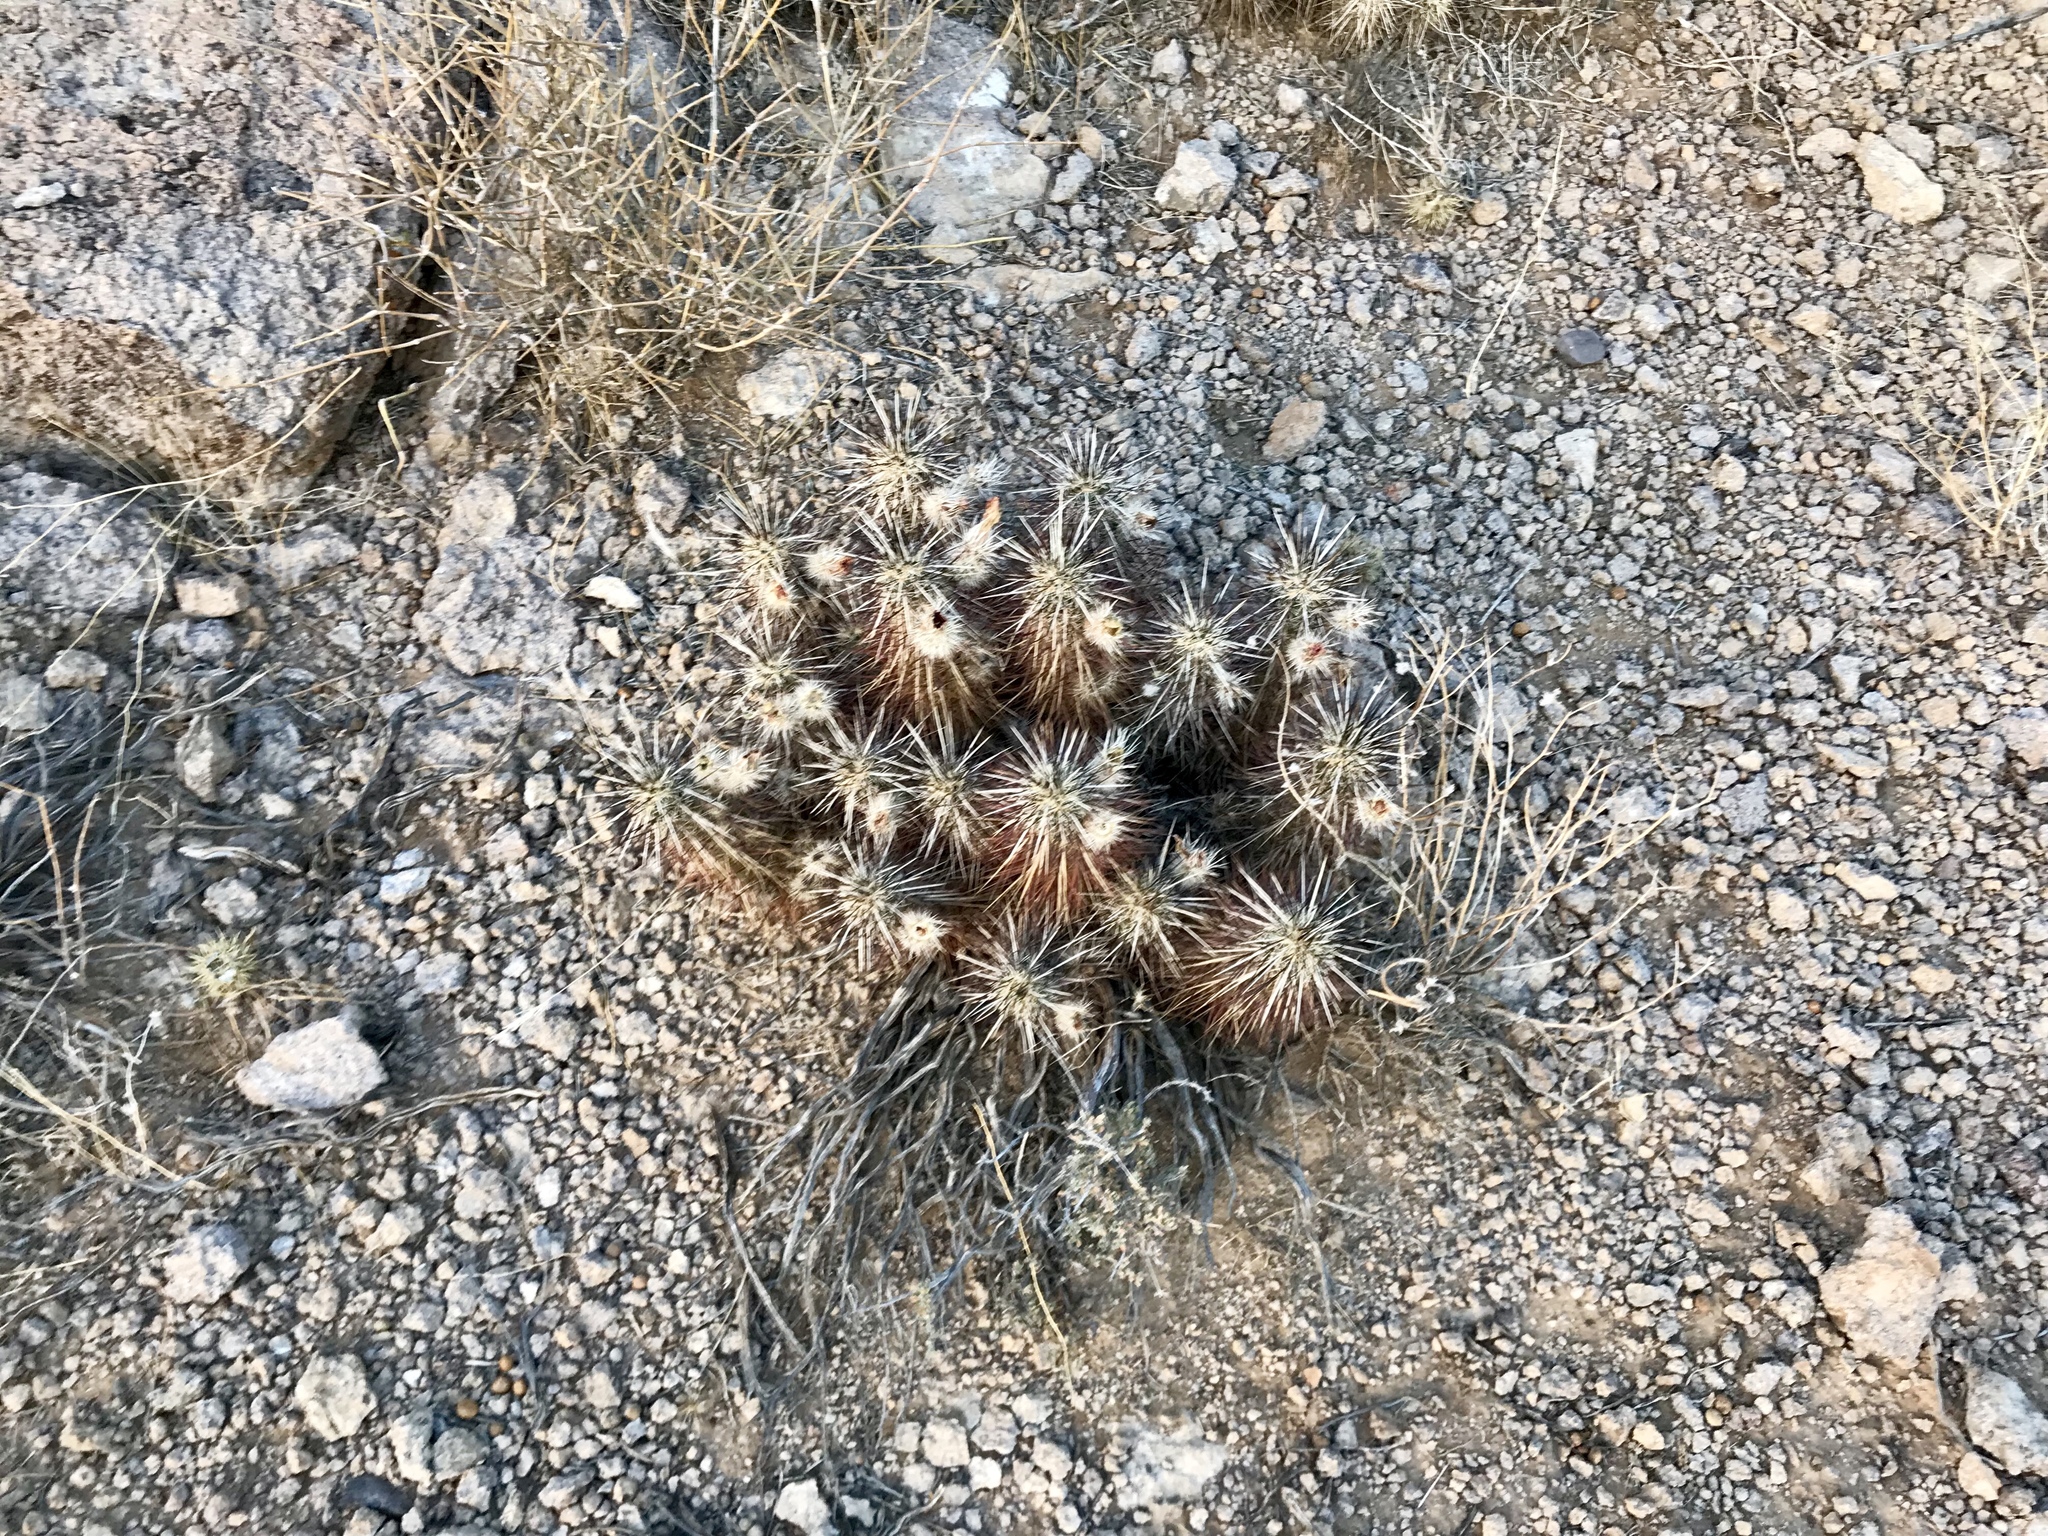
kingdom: Plantae
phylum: Tracheophyta
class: Magnoliopsida
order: Caryophyllales
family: Cactaceae
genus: Echinocereus
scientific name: Echinocereus engelmannii
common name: Engelmann's hedgehog cactus
